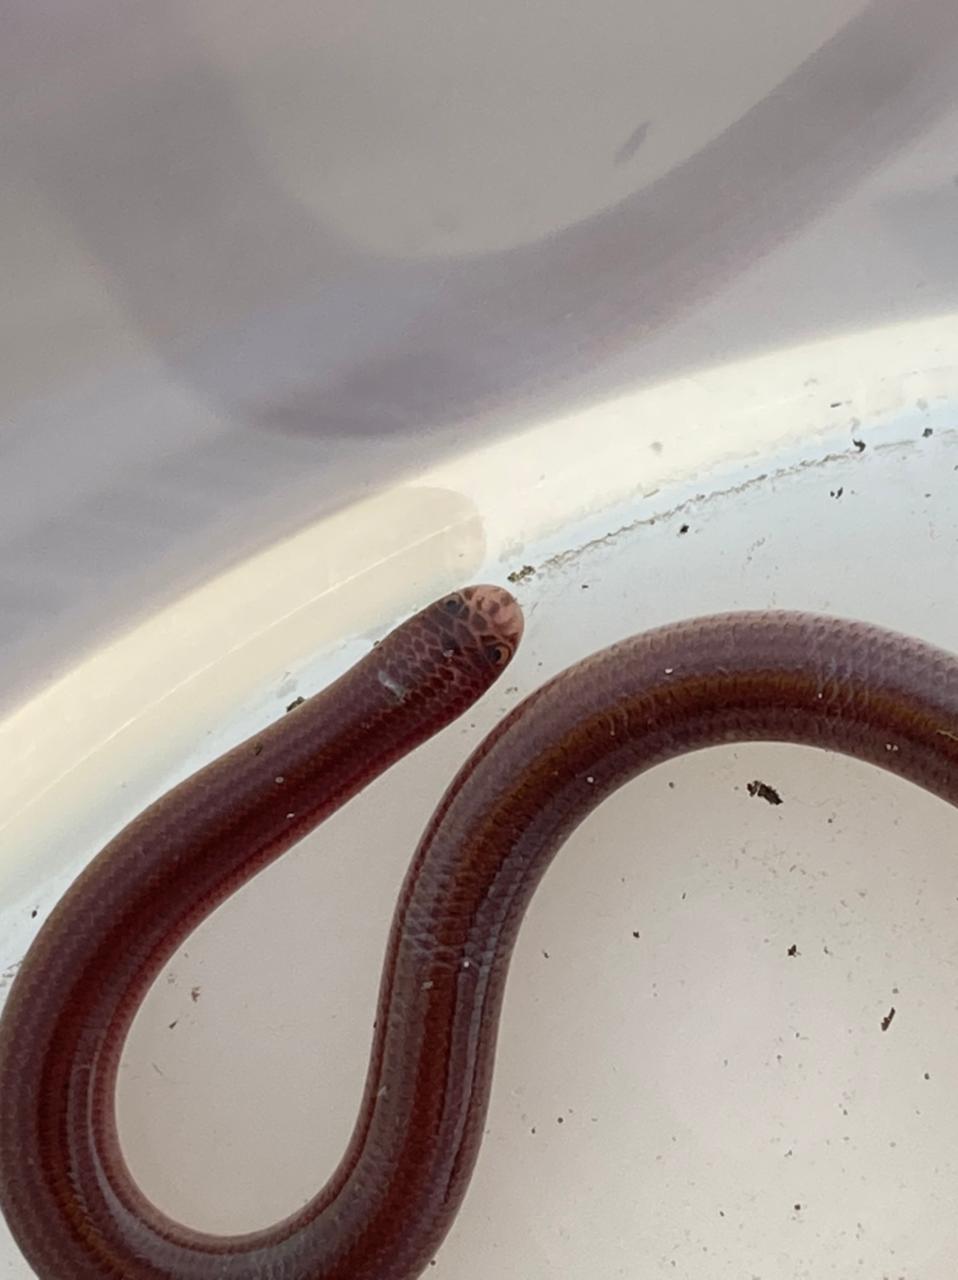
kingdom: Animalia
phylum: Chordata
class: Squamata
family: Typhlopidae
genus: Amerotyphlops
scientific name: Amerotyphlops brongersmianus
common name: Brongersma's worm snake
